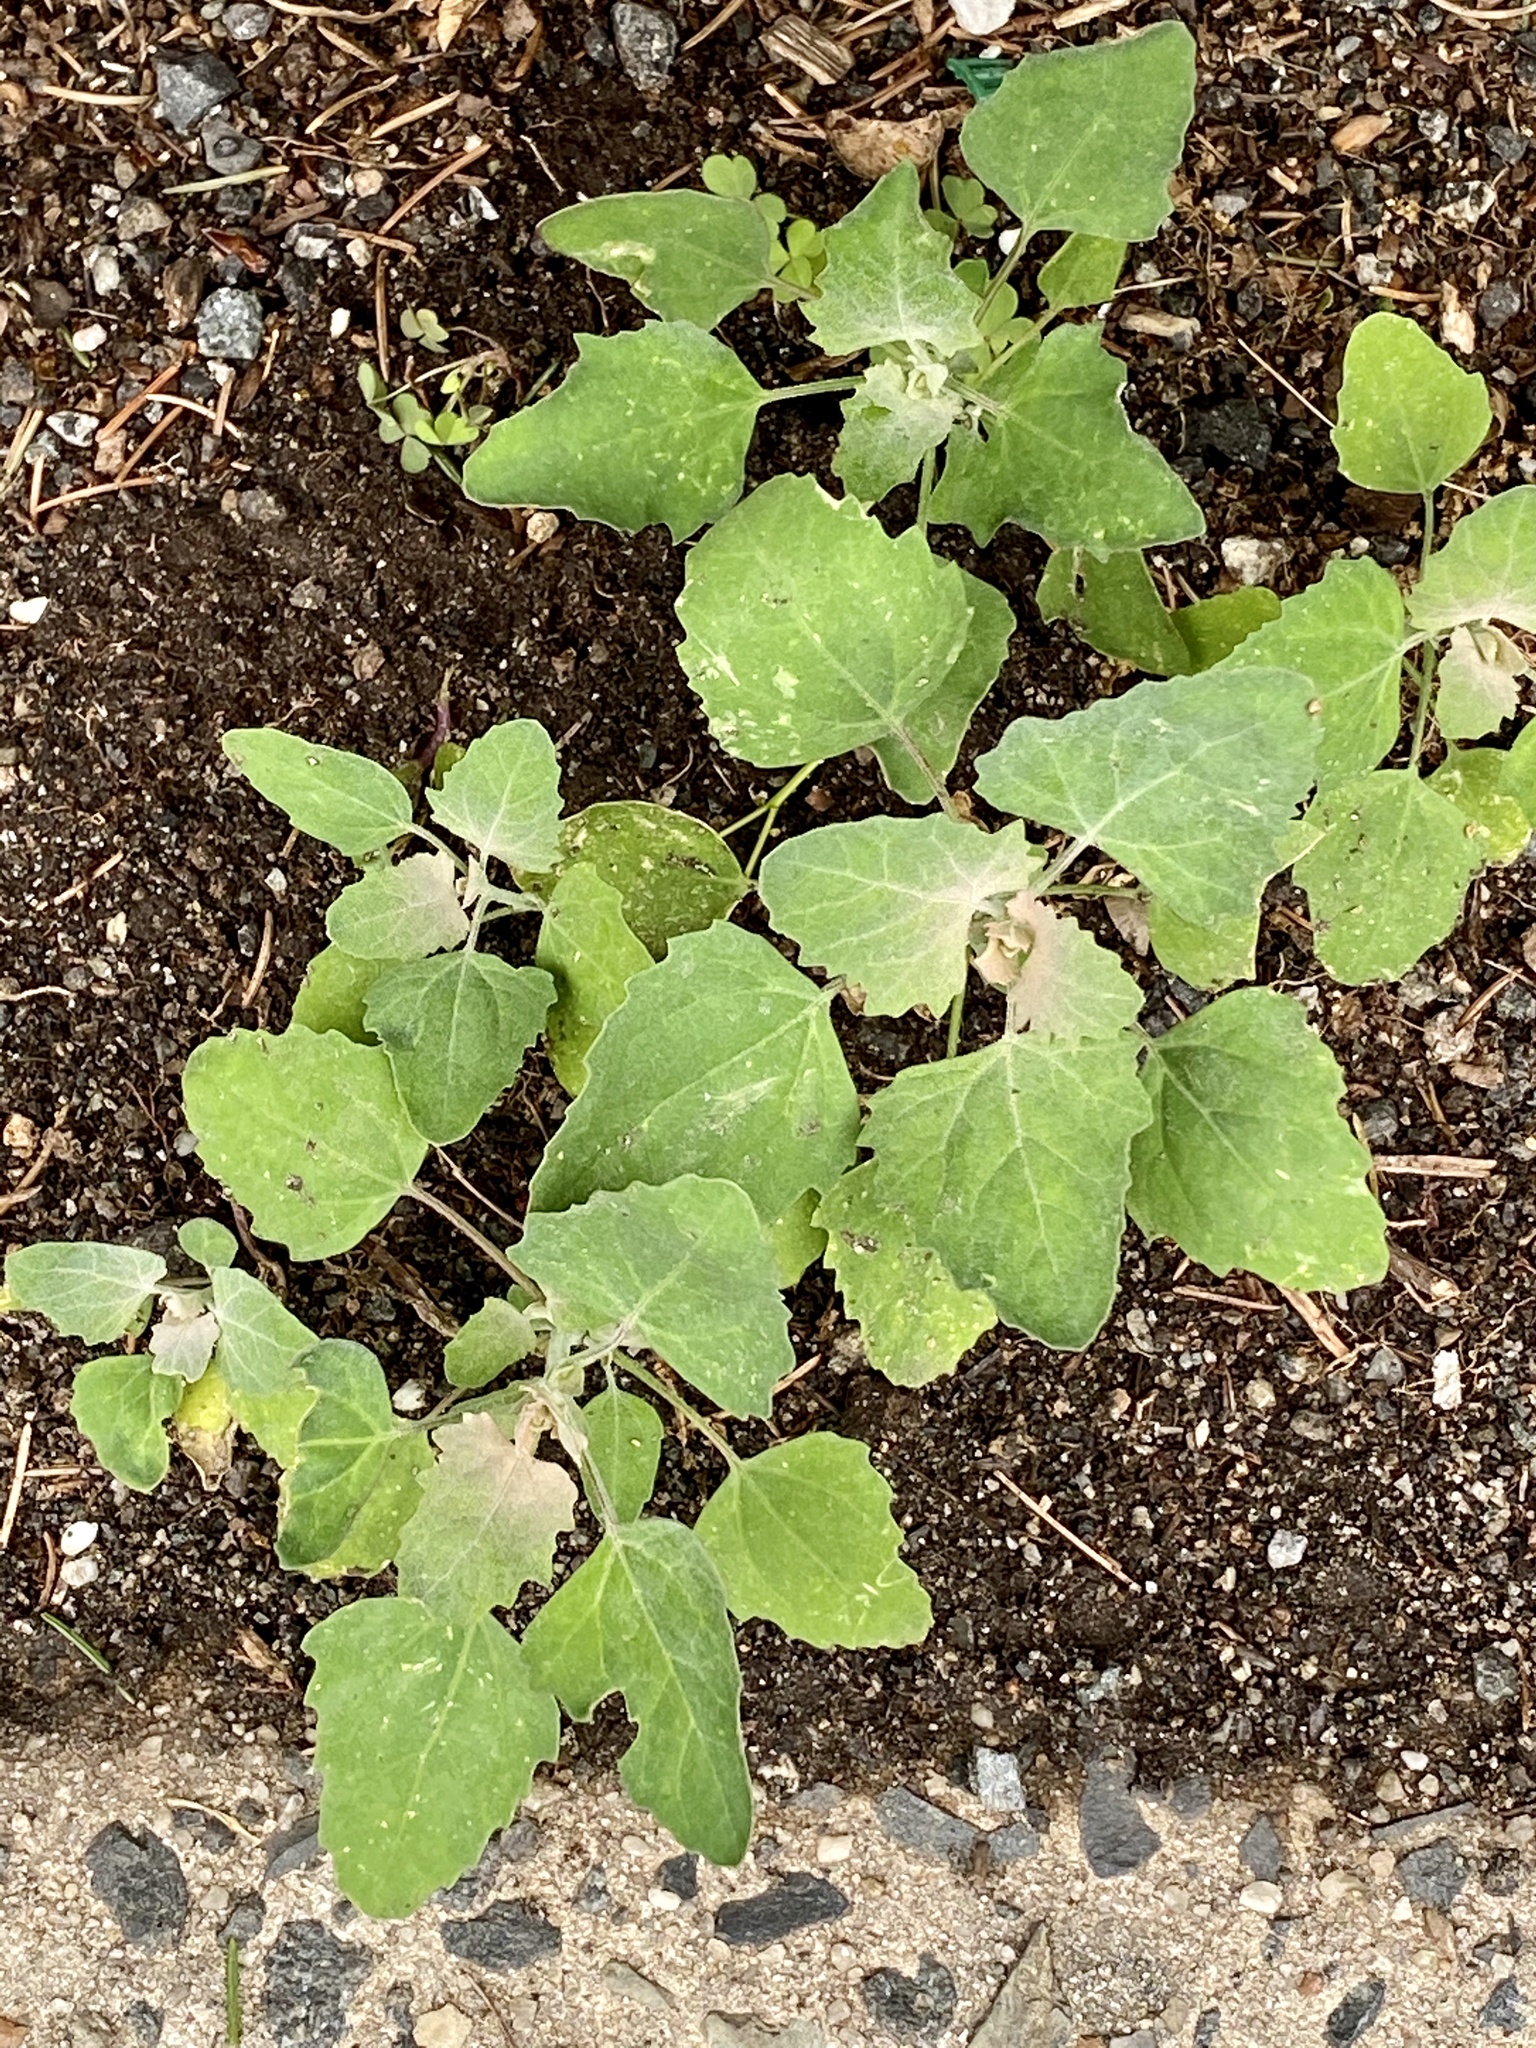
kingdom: Plantae
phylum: Tracheophyta
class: Magnoliopsida
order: Caryophyllales
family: Amaranthaceae
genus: Chenopodium
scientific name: Chenopodium album
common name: Fat-hen
